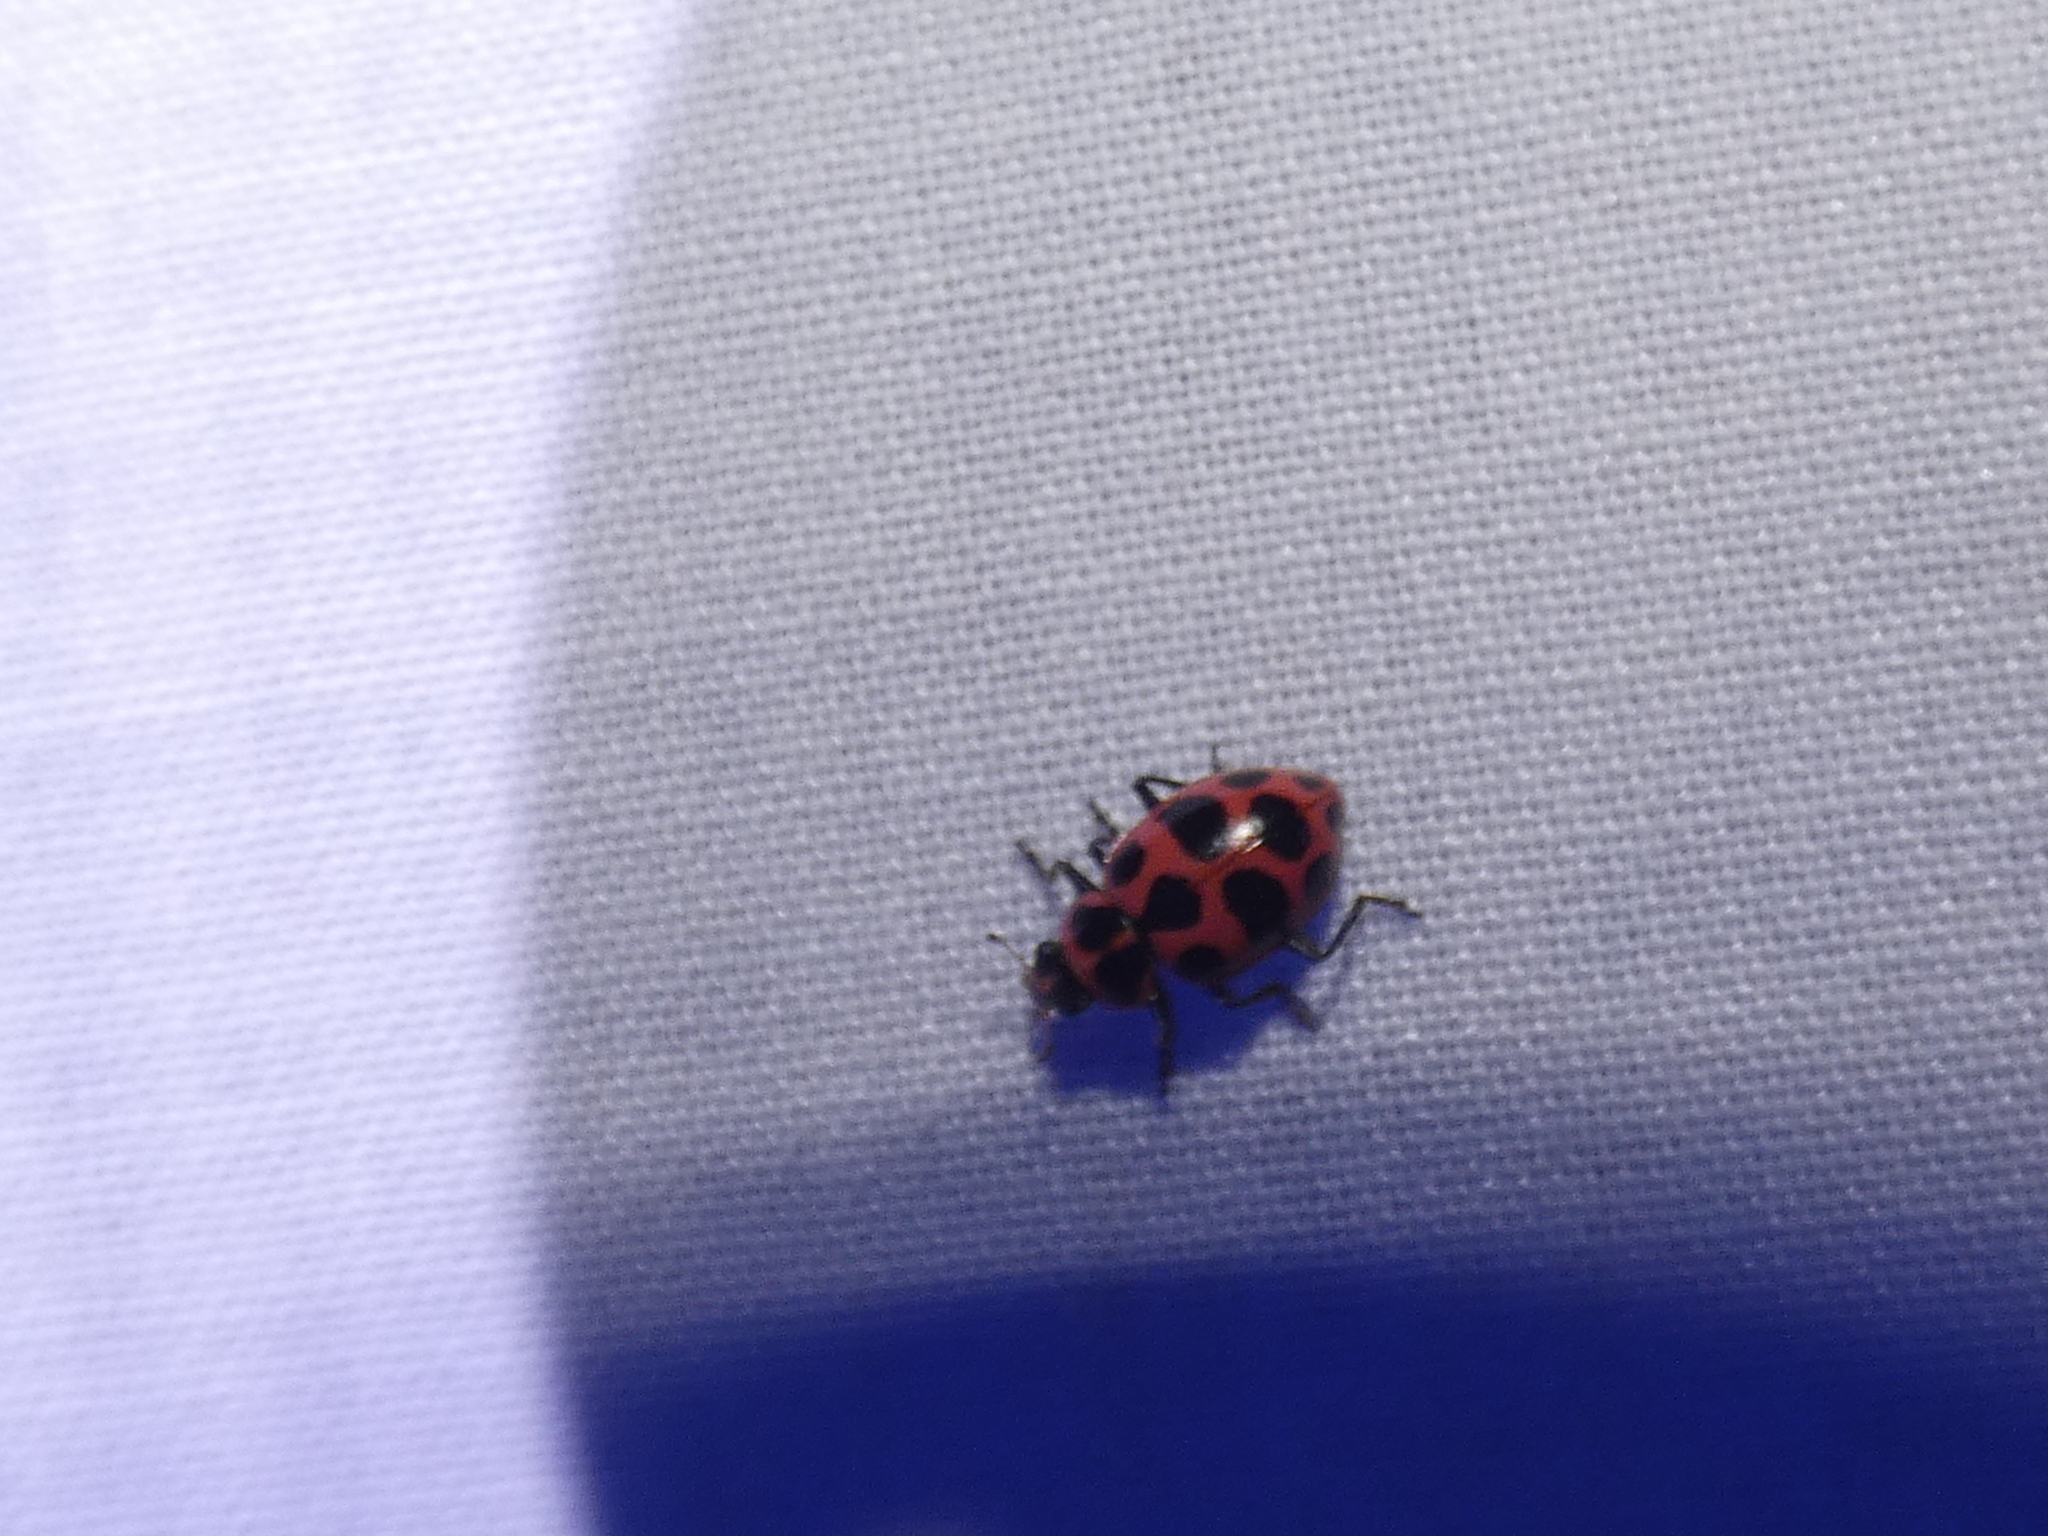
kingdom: Animalia
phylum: Arthropoda
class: Insecta
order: Coleoptera
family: Coccinellidae
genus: Coleomegilla
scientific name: Coleomegilla maculata
